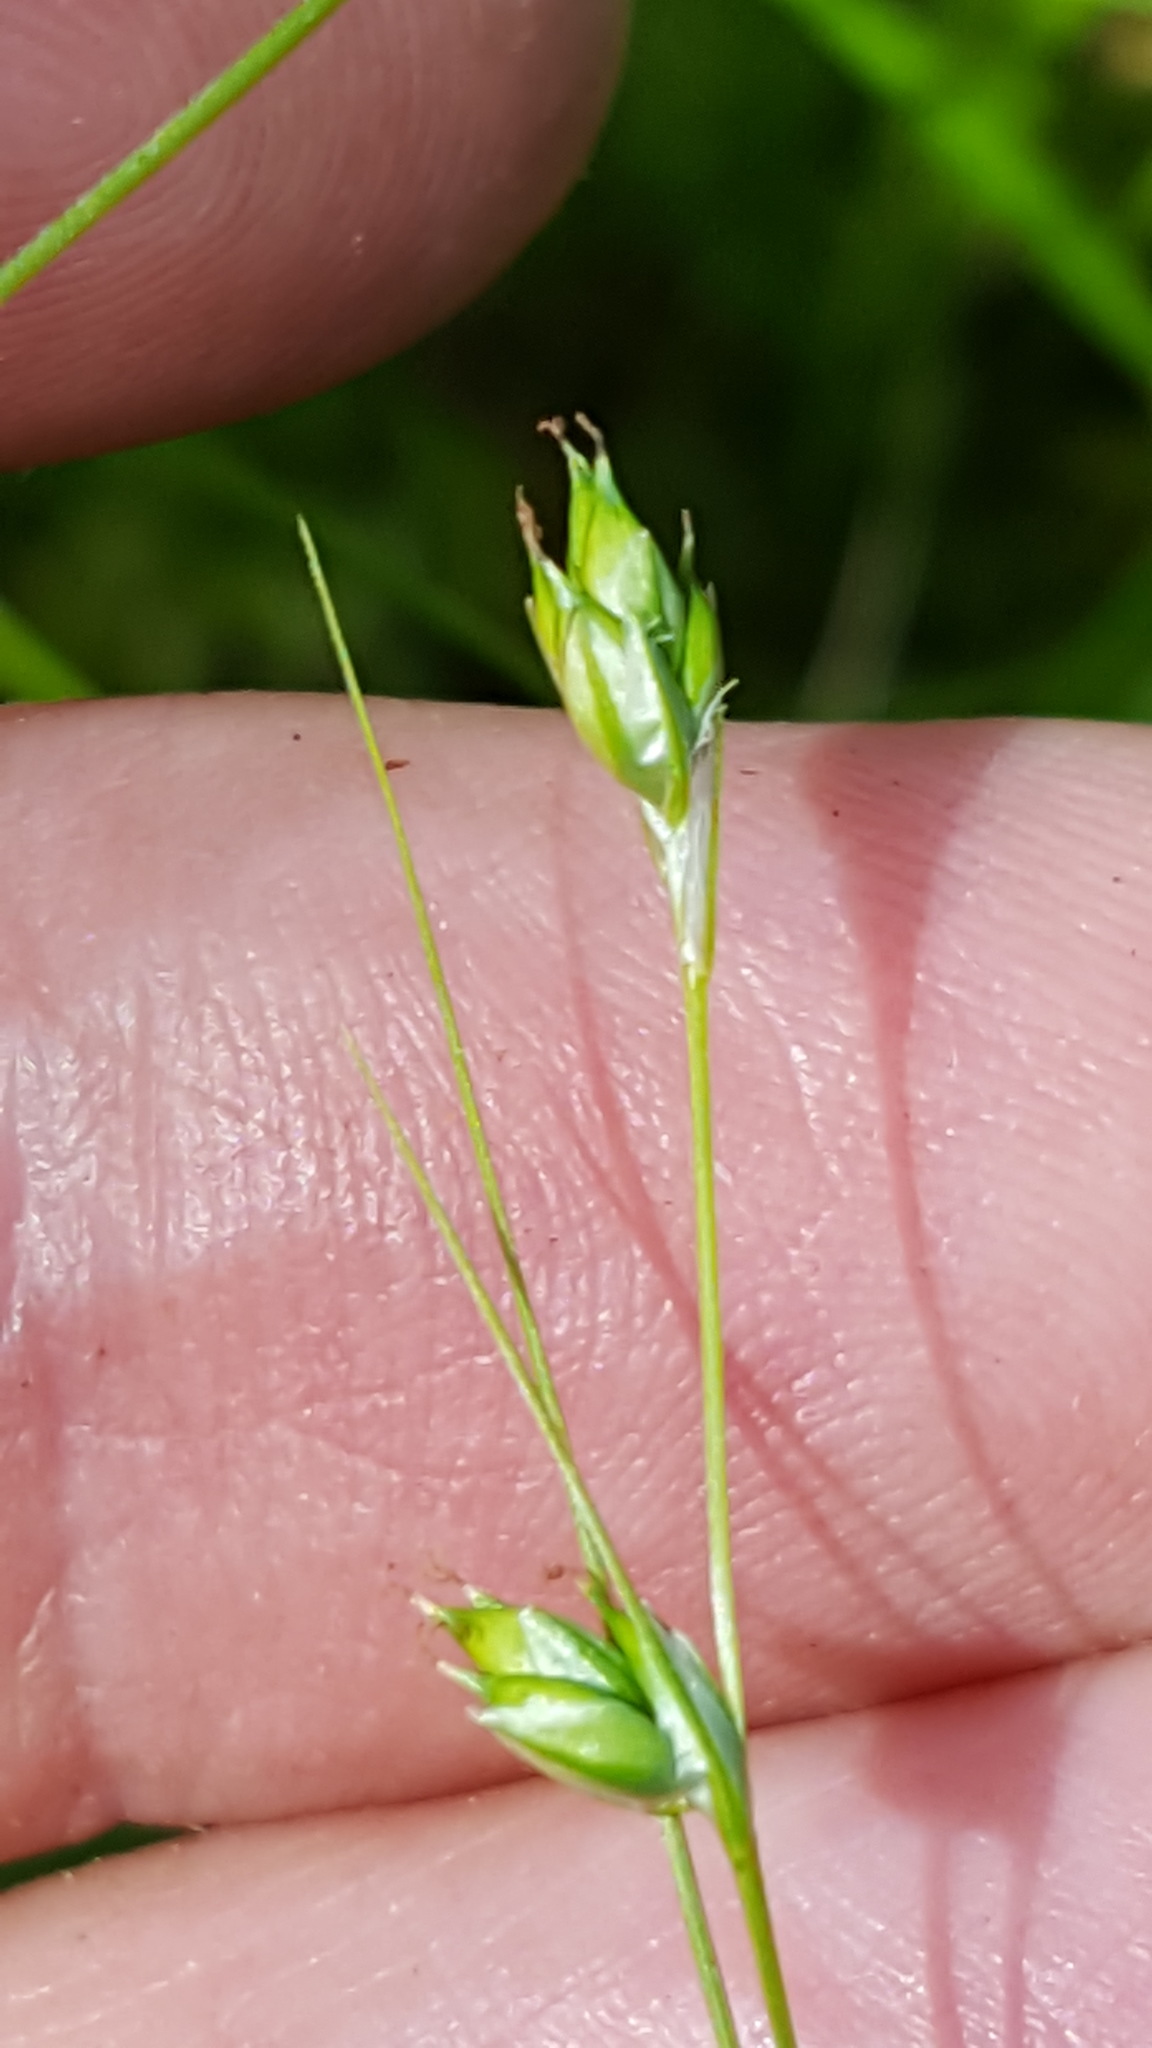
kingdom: Plantae
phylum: Tracheophyta
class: Liliopsida
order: Poales
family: Cyperaceae
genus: Carex
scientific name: Carex trisperma
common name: Three-seeded sedge
